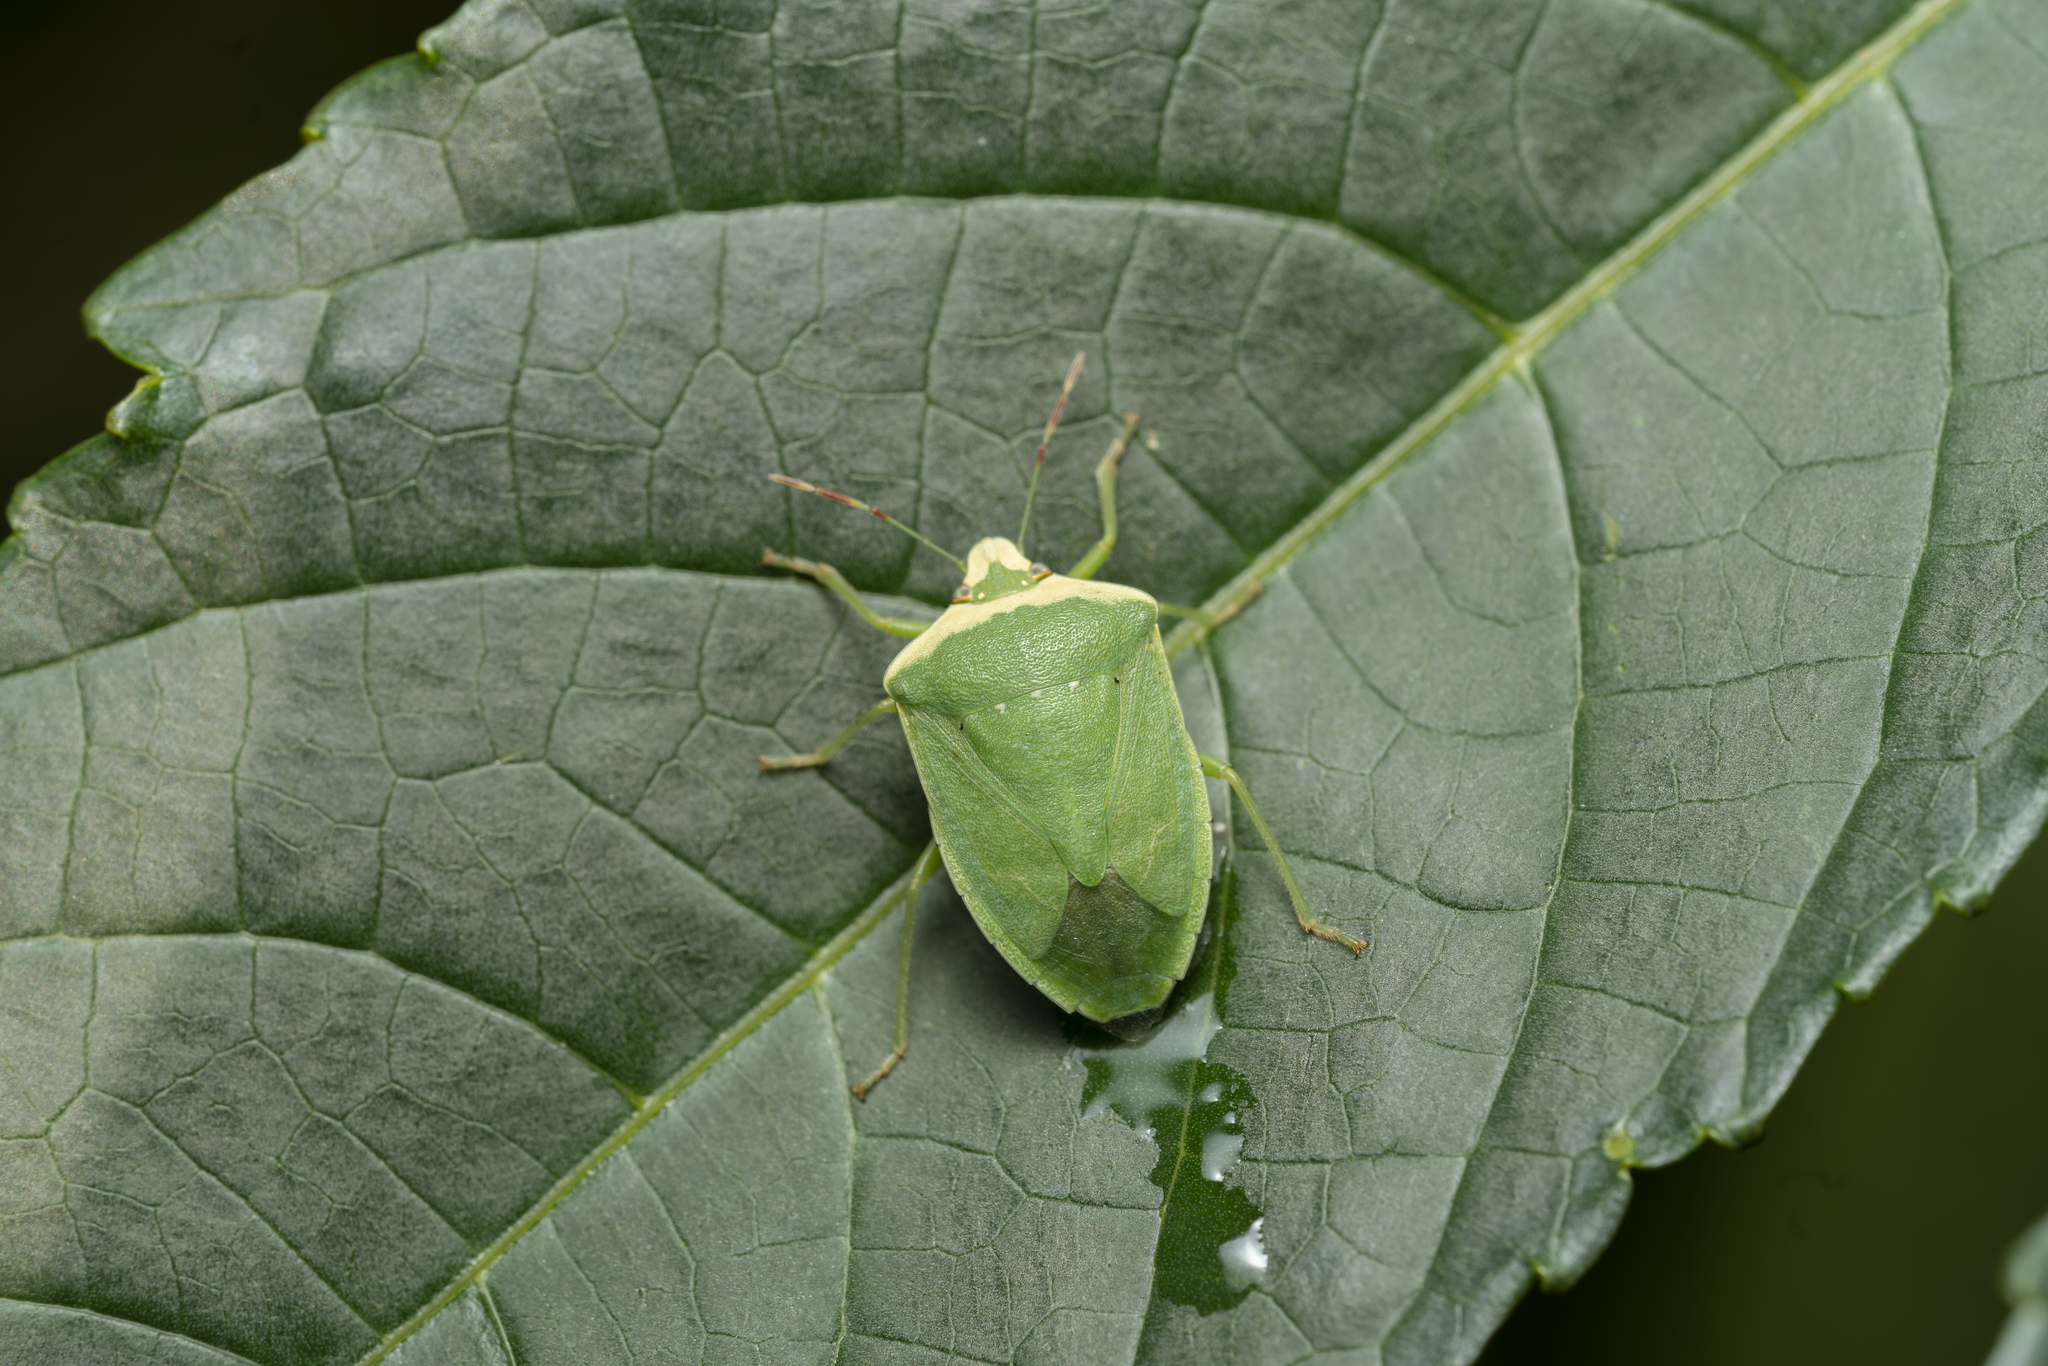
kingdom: Animalia
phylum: Arthropoda
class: Insecta
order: Hemiptera
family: Pentatomidae
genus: Nezara
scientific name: Nezara viridula
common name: Southern green stink bug
